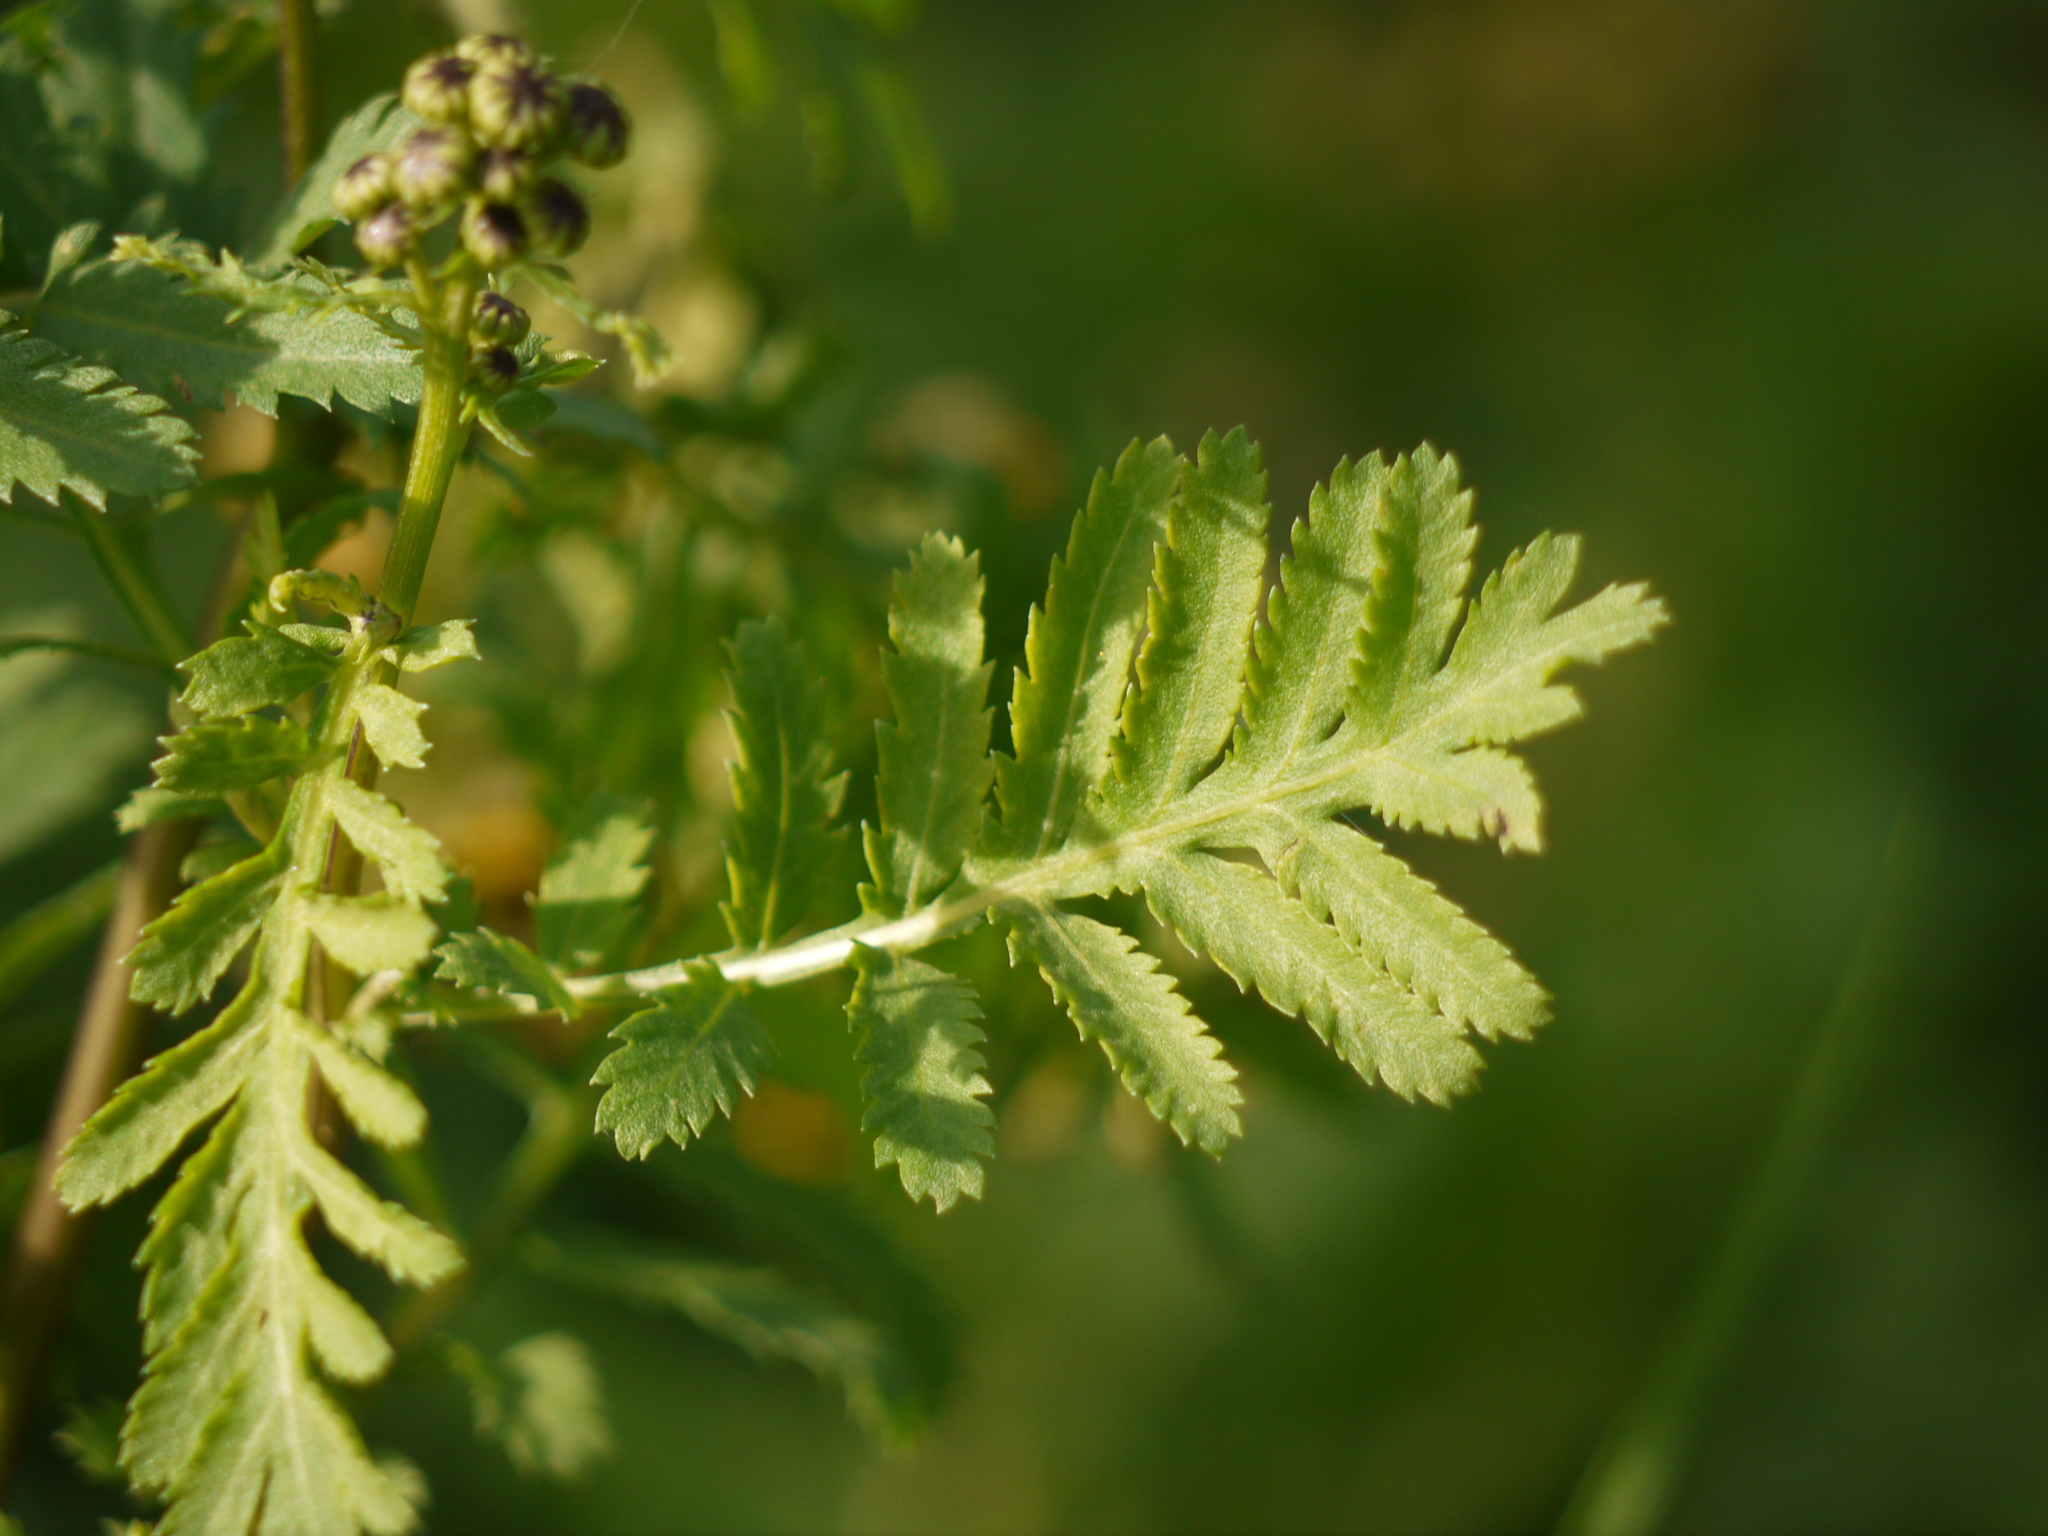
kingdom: Plantae
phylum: Tracheophyta
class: Magnoliopsida
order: Asterales
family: Asteraceae
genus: Tanacetum
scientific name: Tanacetum vulgare
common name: Common tansy
